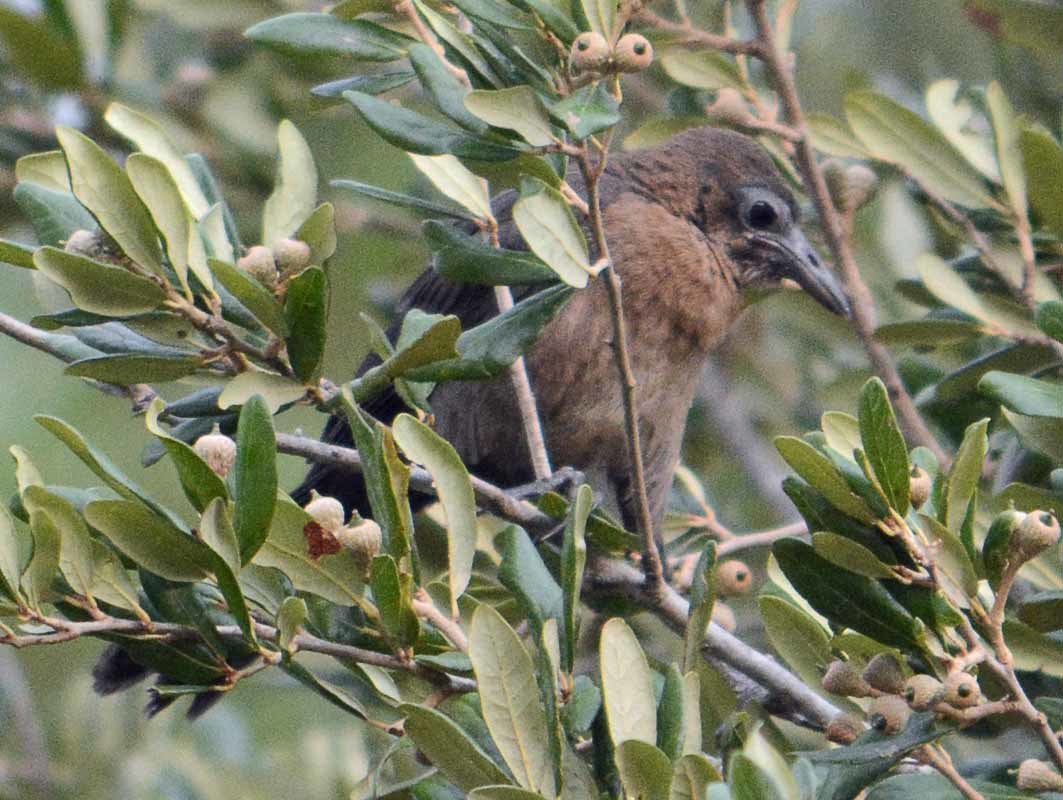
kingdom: Animalia
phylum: Chordata
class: Aves
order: Passeriformes
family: Icteridae
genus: Quiscalus
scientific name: Quiscalus mexicanus
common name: Great-tailed grackle
